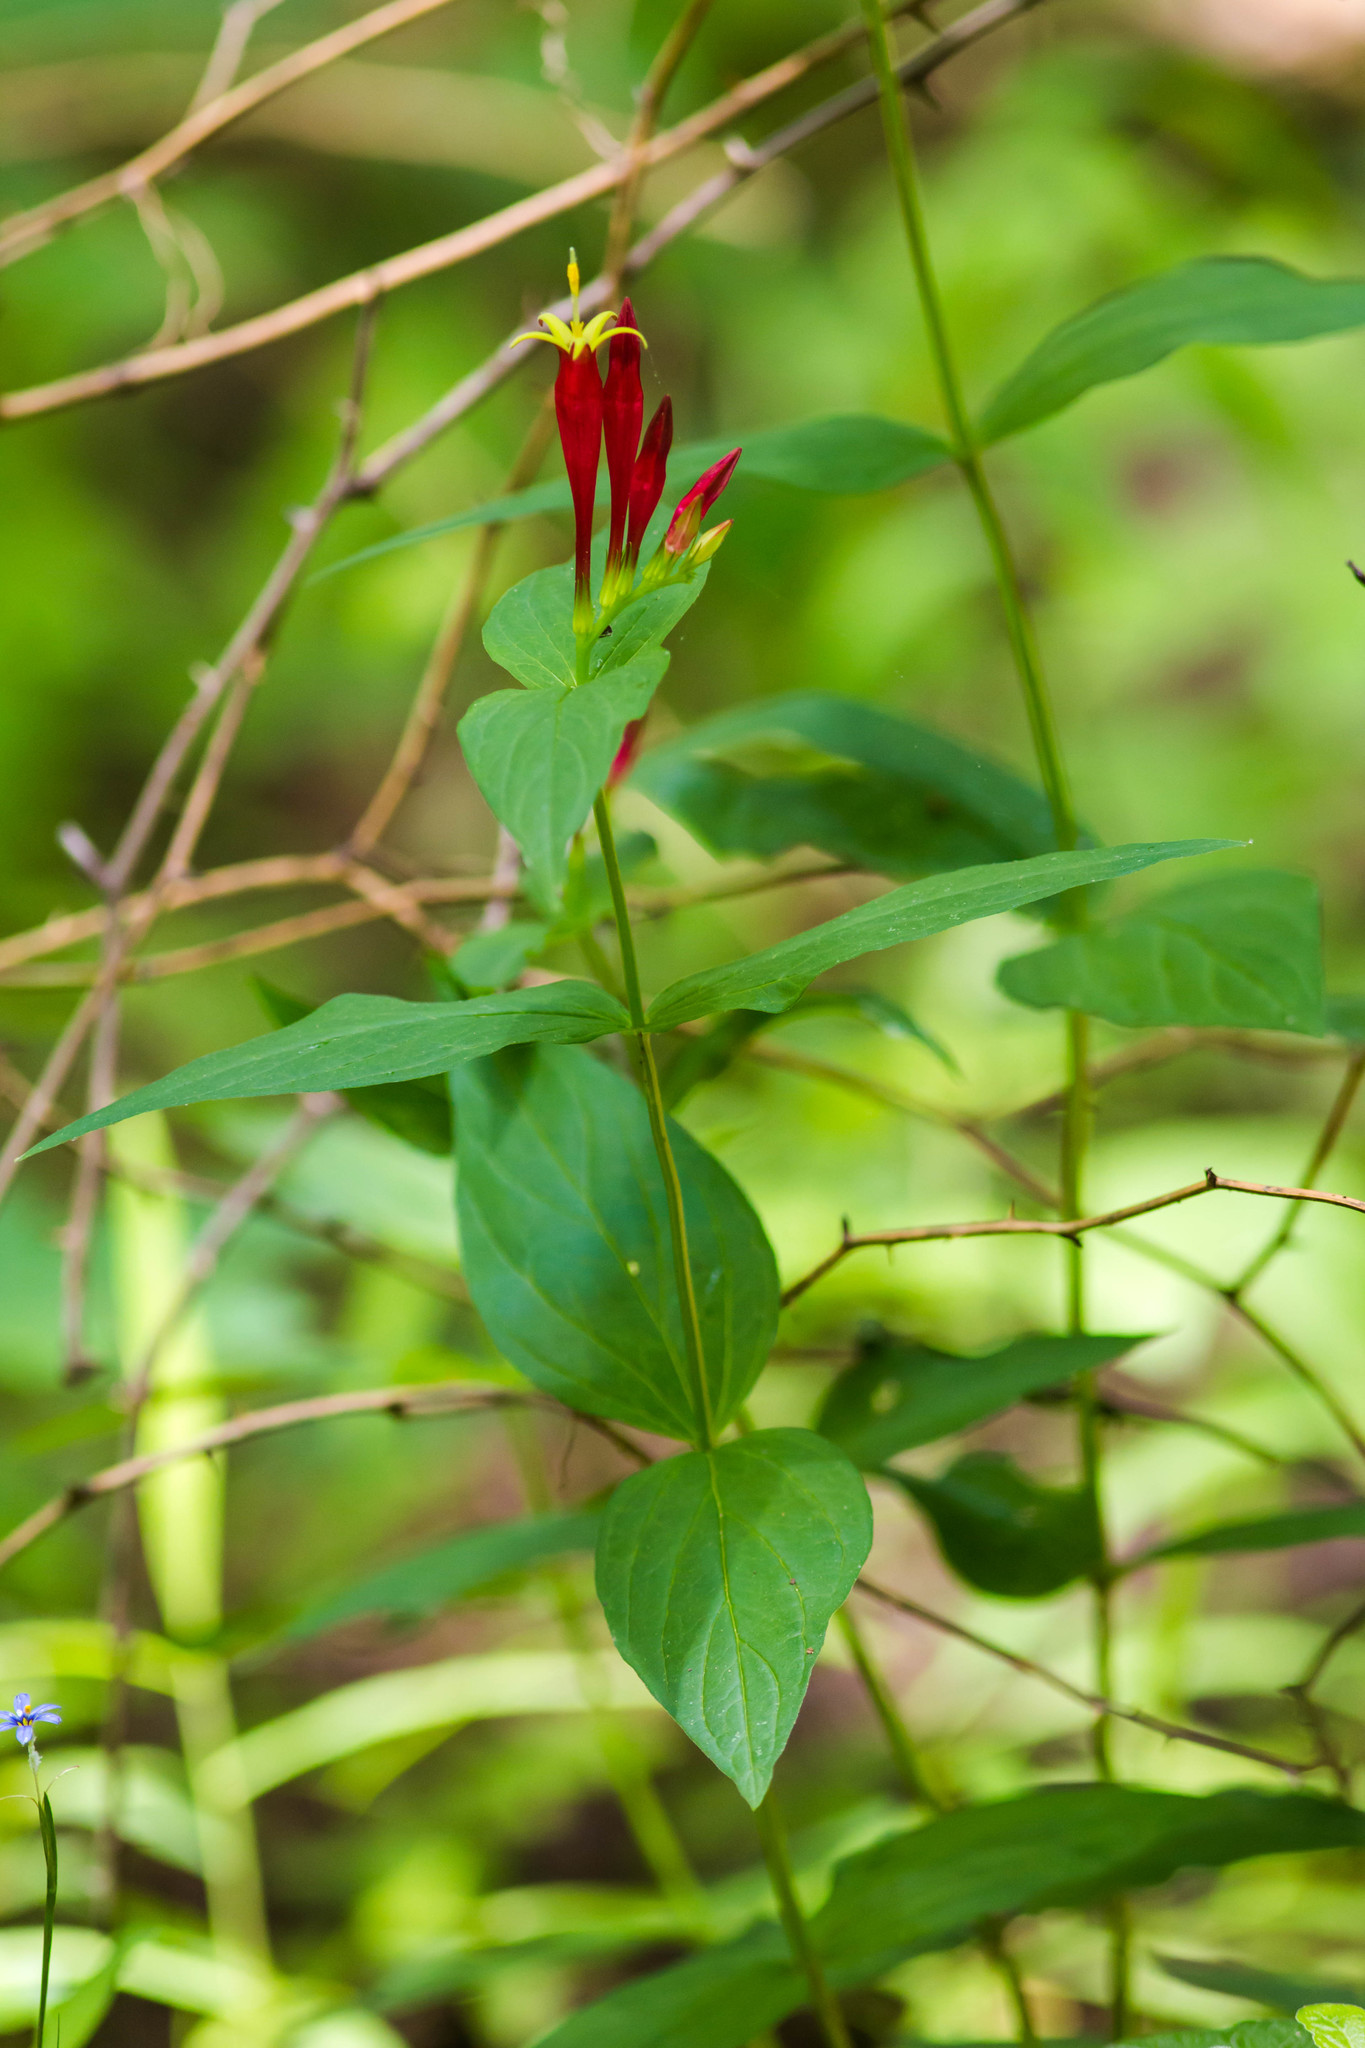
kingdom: Plantae
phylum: Tracheophyta
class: Magnoliopsida
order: Gentianales
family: Loganiaceae
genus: Spigelia
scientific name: Spigelia marilandica
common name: Indian-pink
